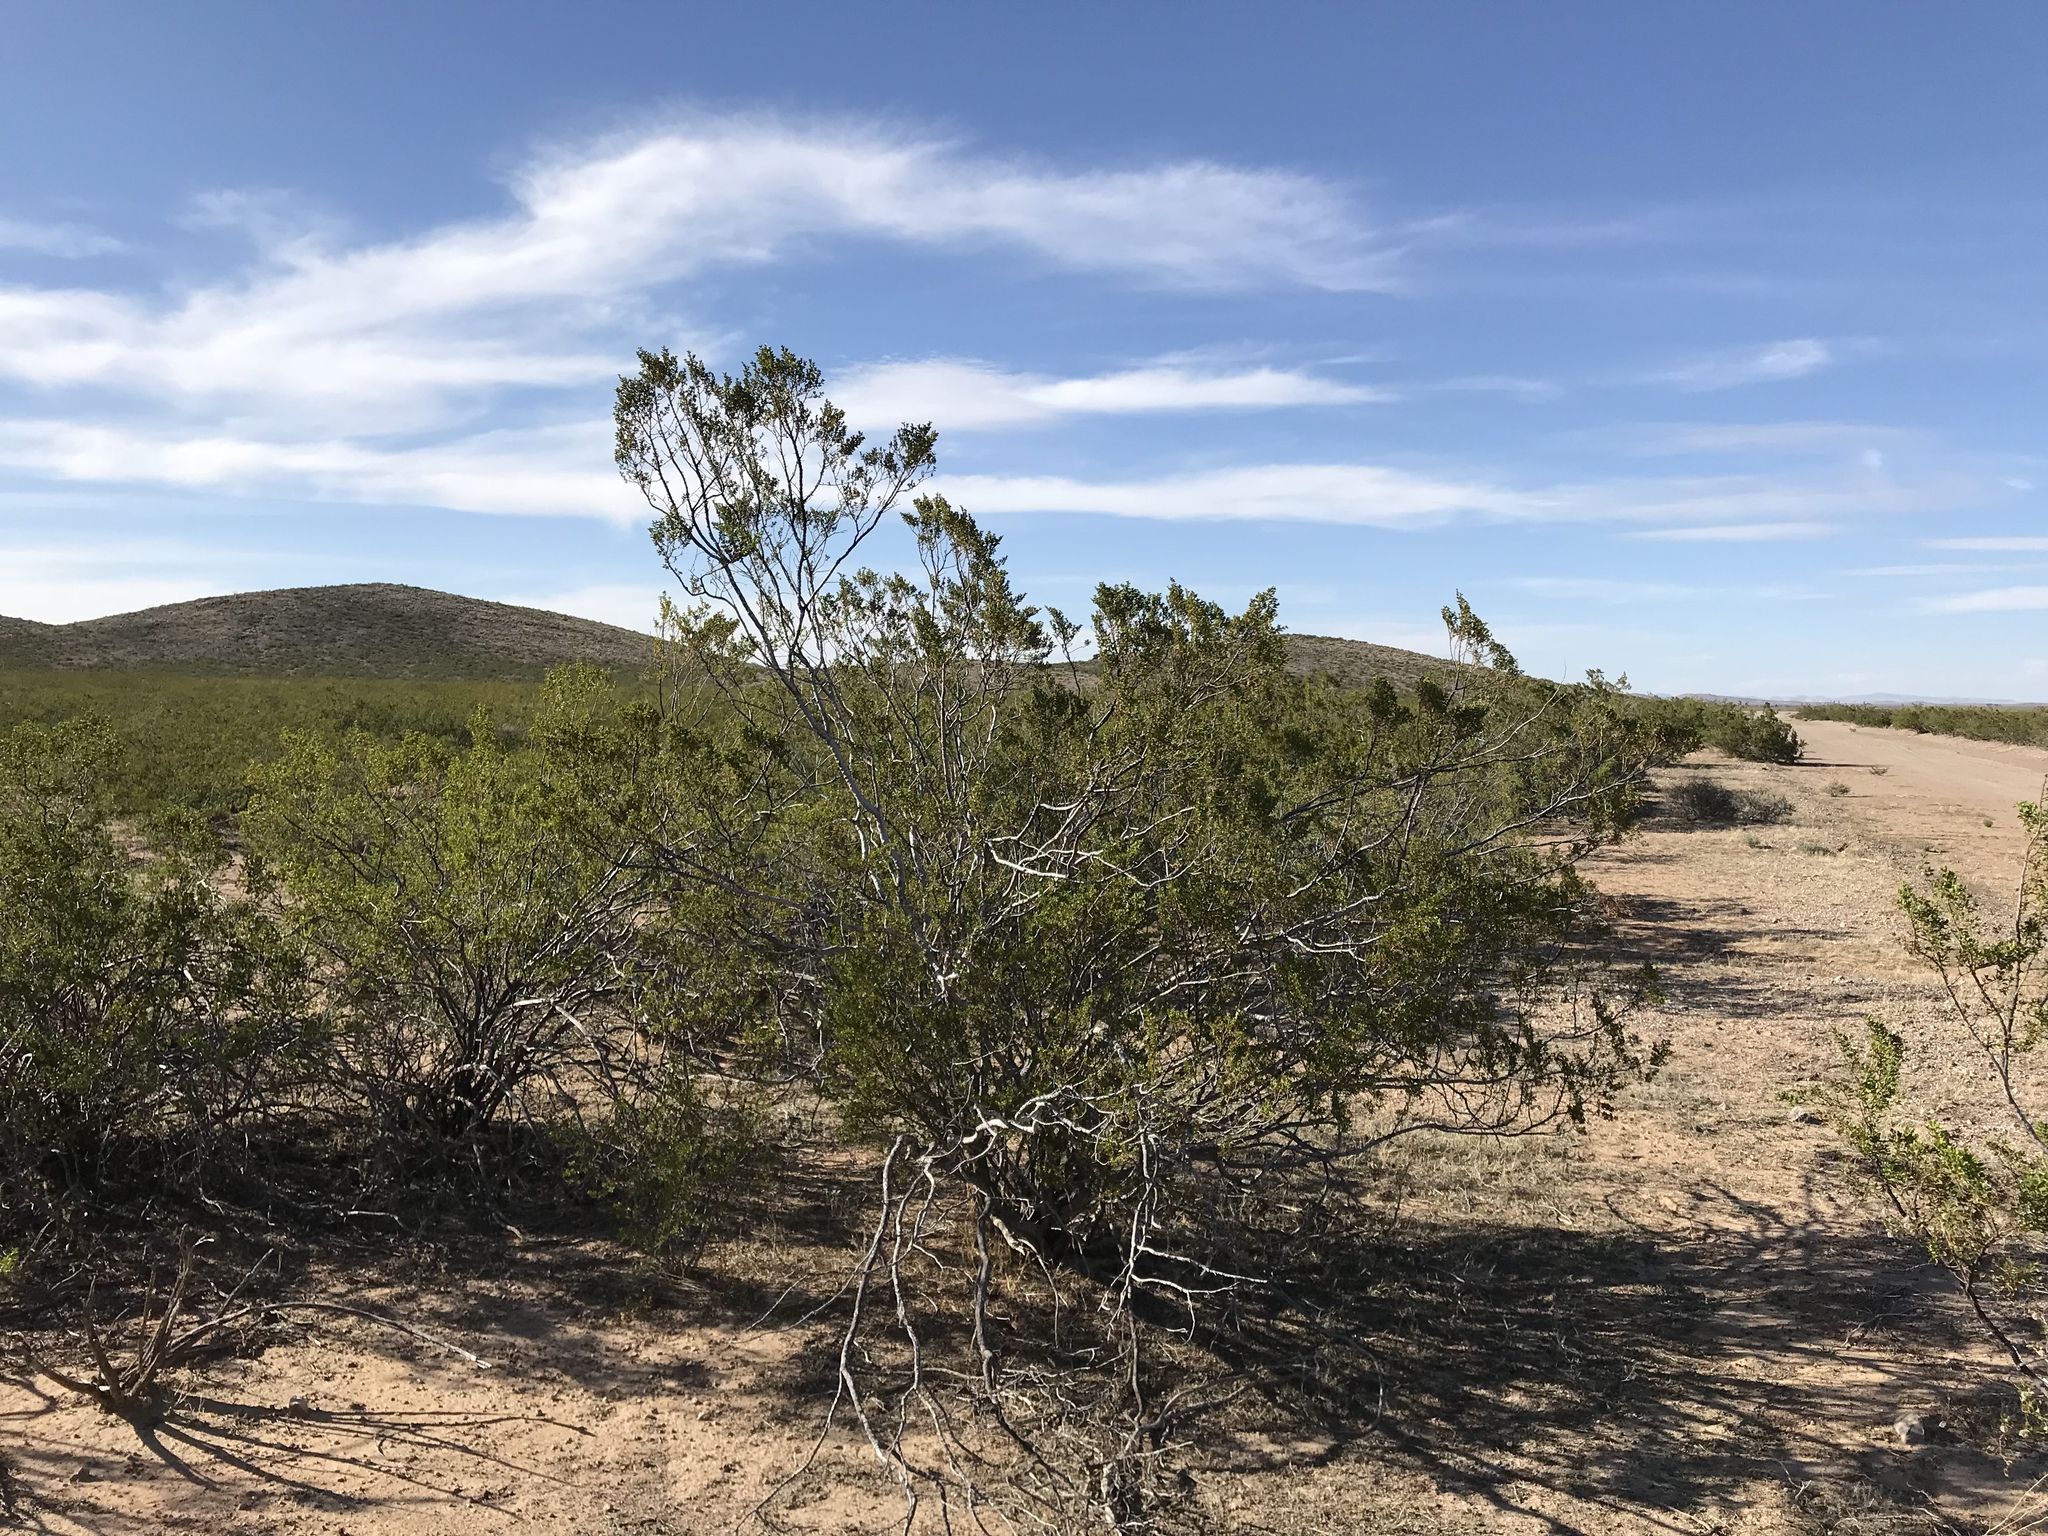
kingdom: Plantae
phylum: Tracheophyta
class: Magnoliopsida
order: Zygophyllales
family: Zygophyllaceae
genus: Larrea
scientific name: Larrea tridentata
